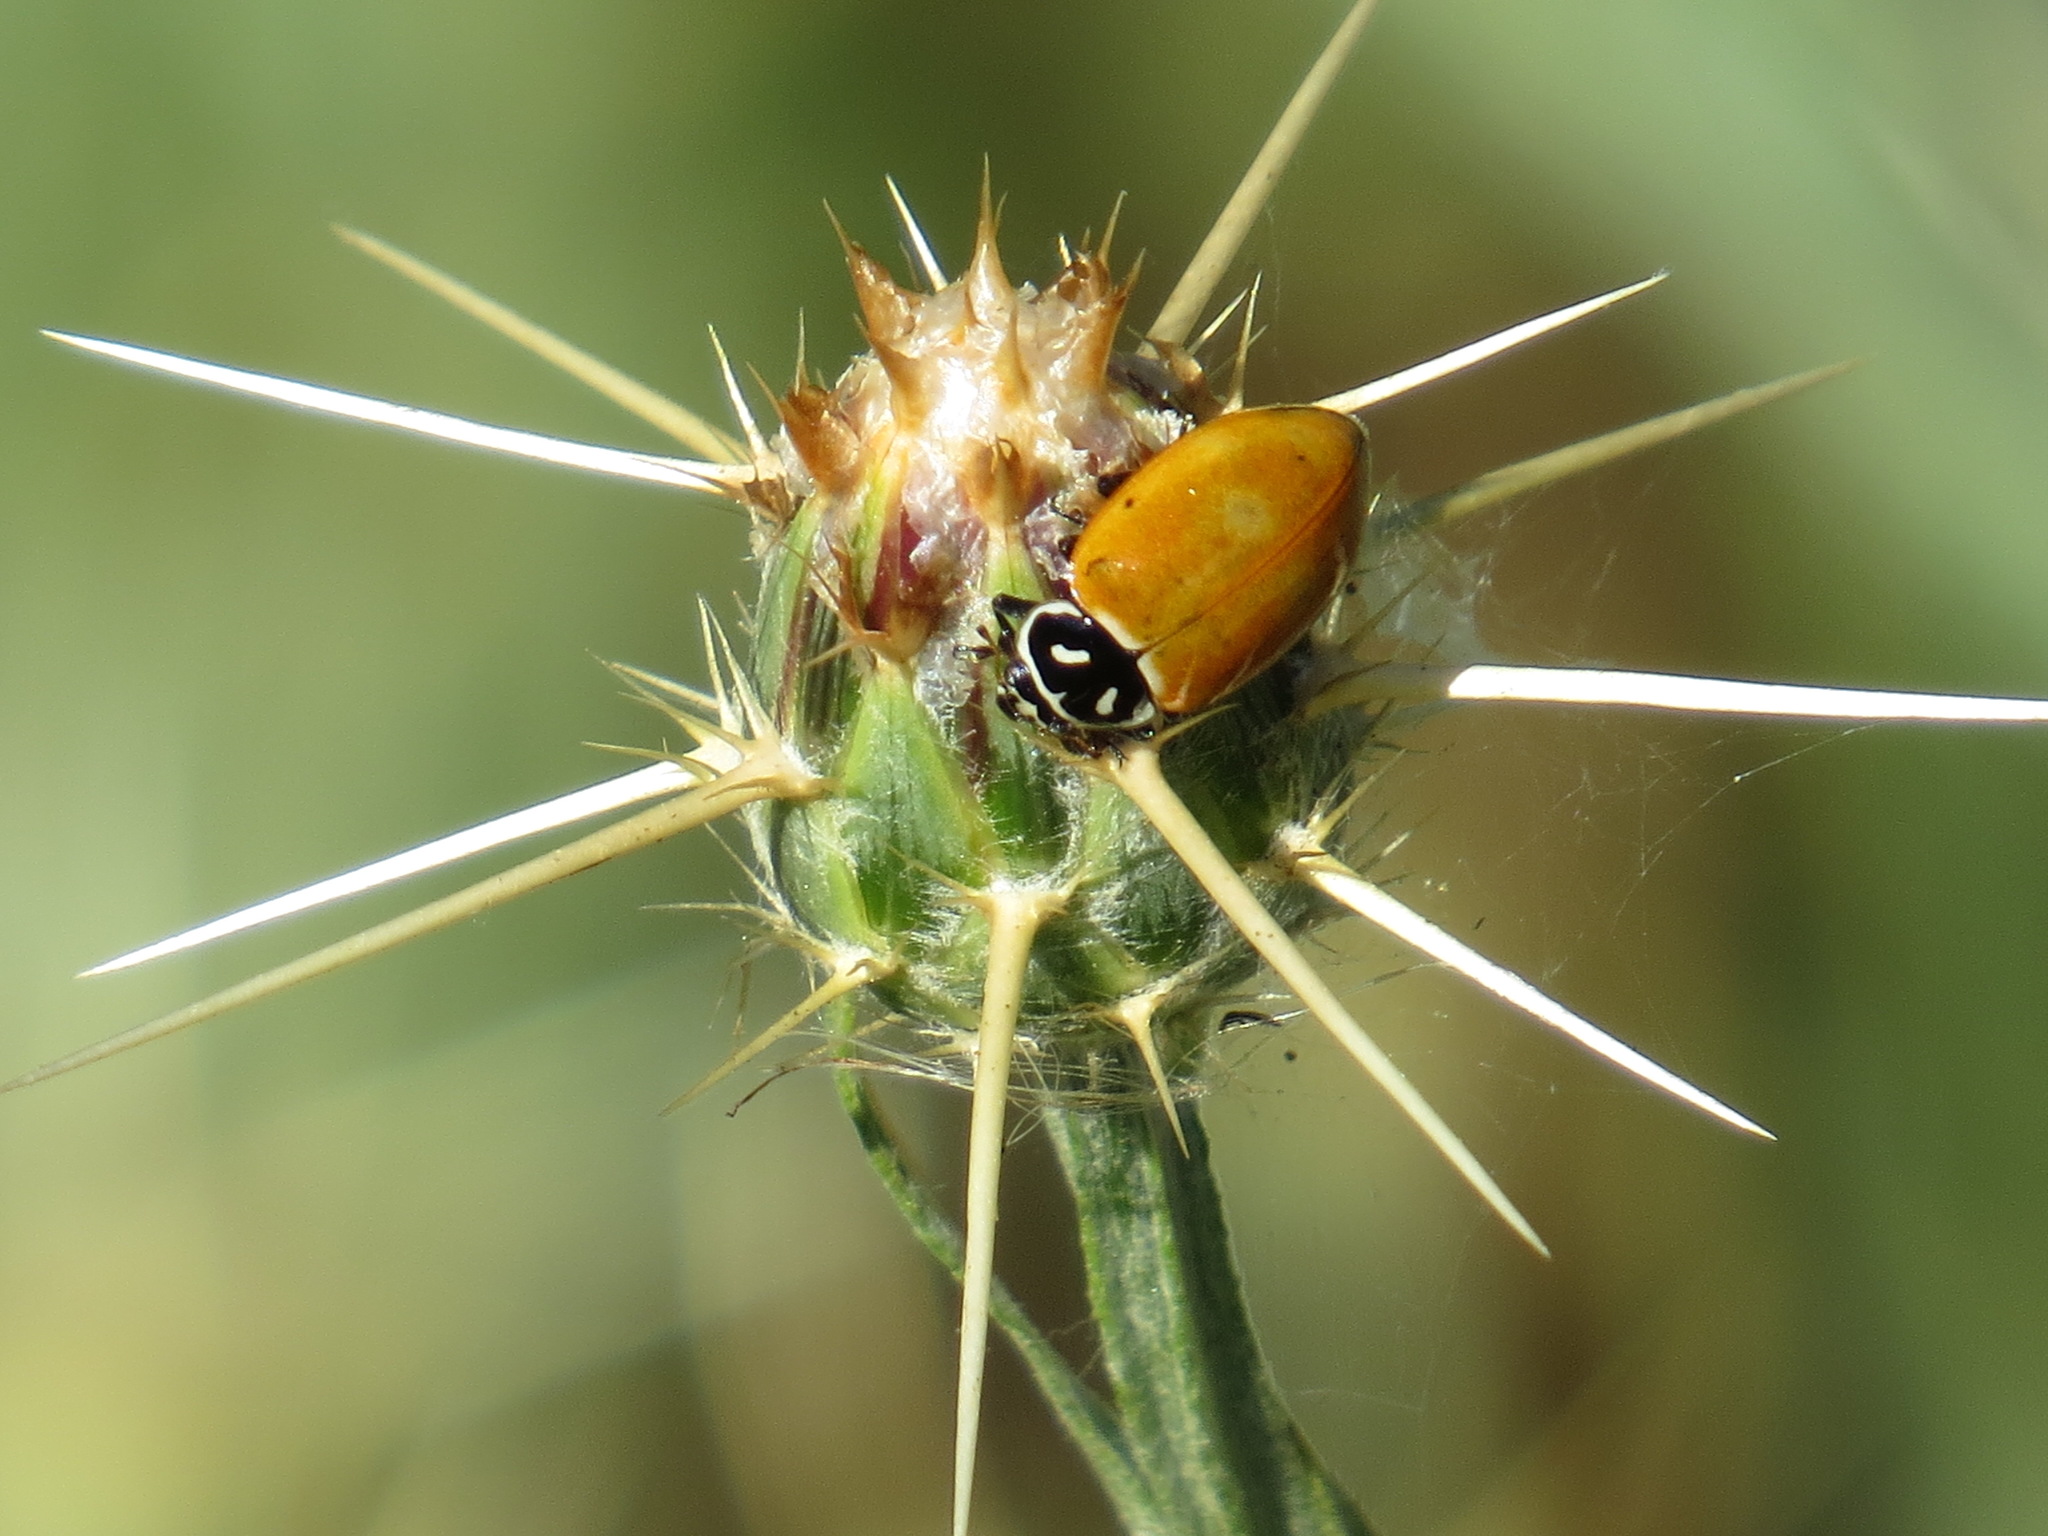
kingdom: Animalia
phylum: Arthropoda
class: Insecta
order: Coleoptera
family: Coccinellidae
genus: Hippodamia
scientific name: Hippodamia convergens
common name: Convergent lady beetle
